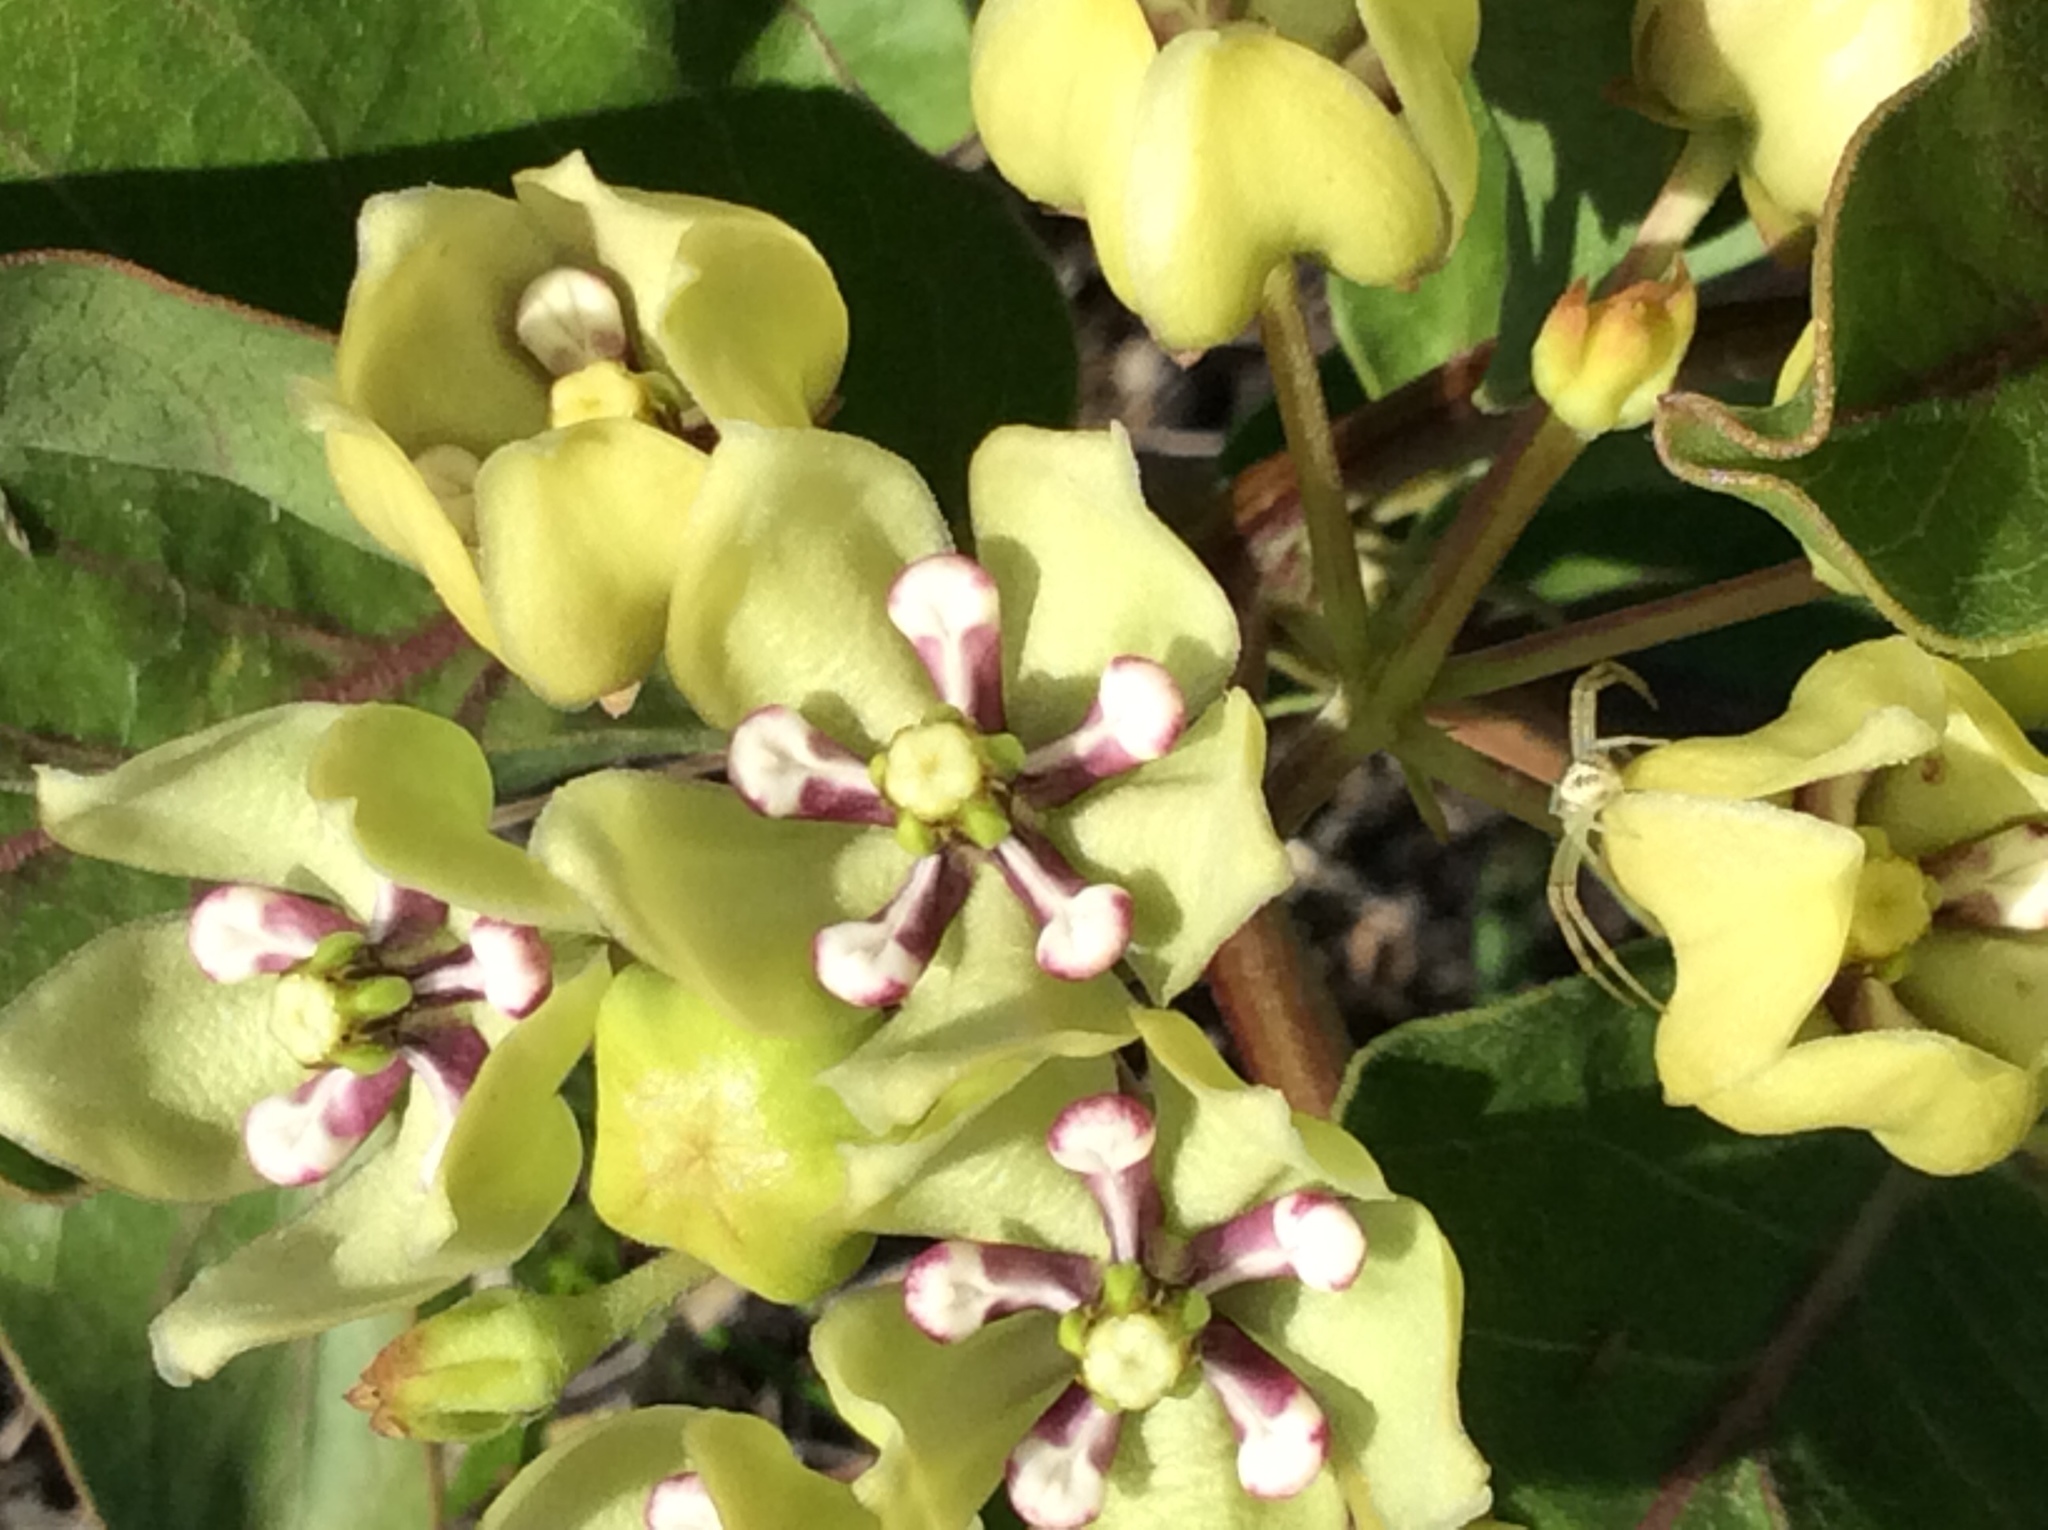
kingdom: Plantae
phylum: Tracheophyta
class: Magnoliopsida
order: Gentianales
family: Apocynaceae
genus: Asclepias
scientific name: Asclepias viridis
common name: Antelope-horns
